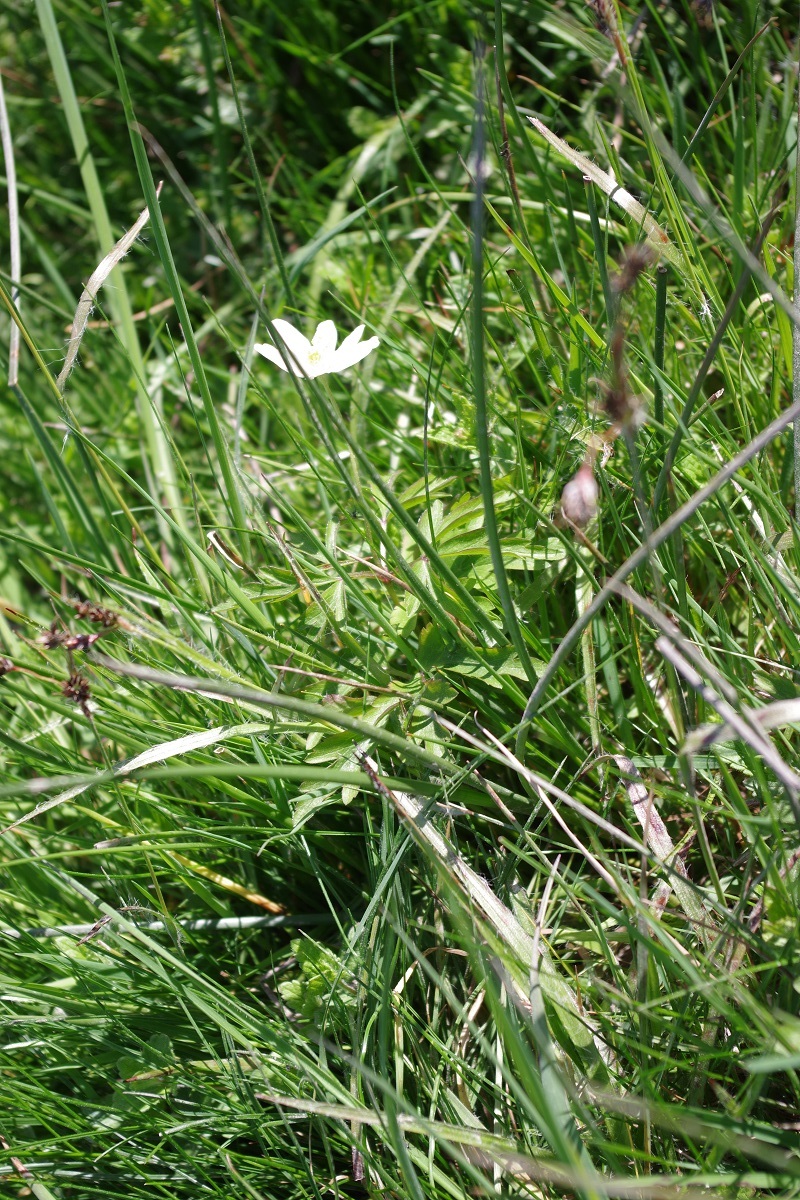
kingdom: Plantae
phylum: Tracheophyta
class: Magnoliopsida
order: Ranunculales
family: Ranunculaceae
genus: Anemone
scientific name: Anemone nemorosa
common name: Wood anemone
